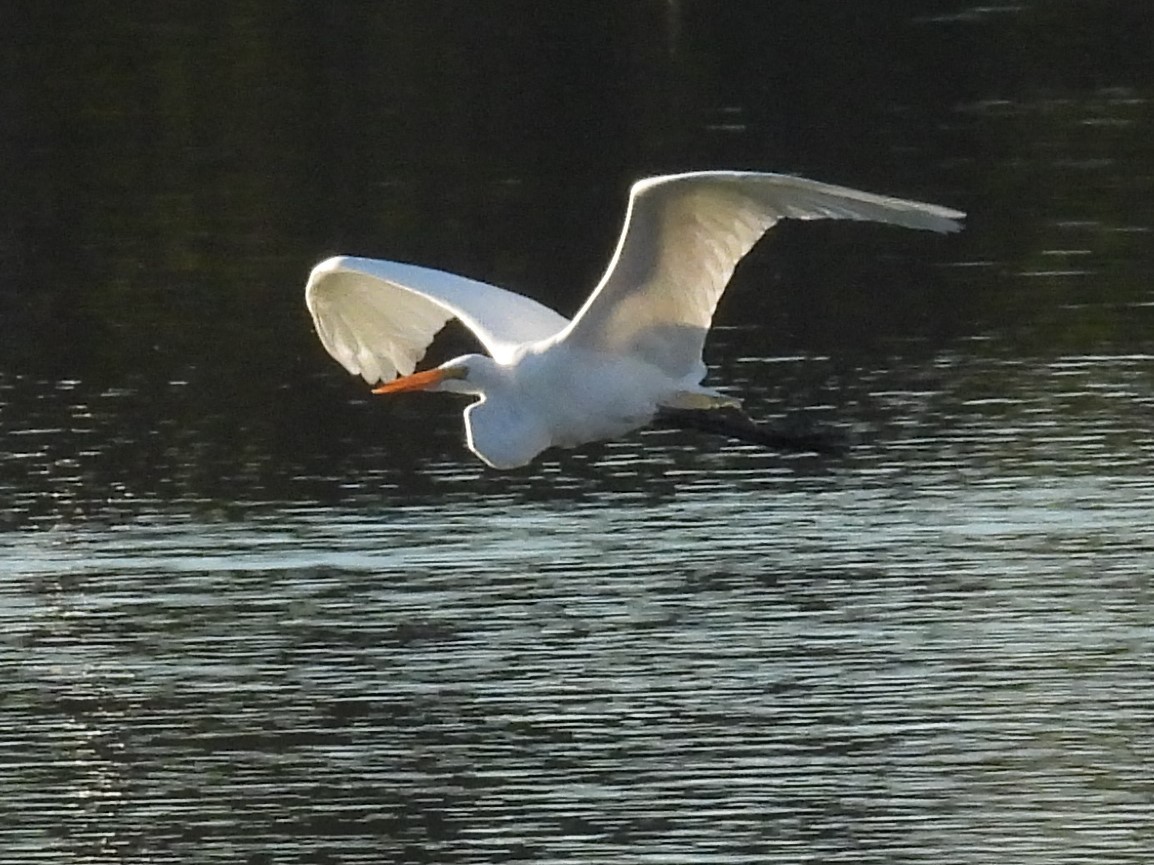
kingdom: Animalia
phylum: Chordata
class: Aves
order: Pelecaniformes
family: Ardeidae
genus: Ardea
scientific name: Ardea alba
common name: Great egret
